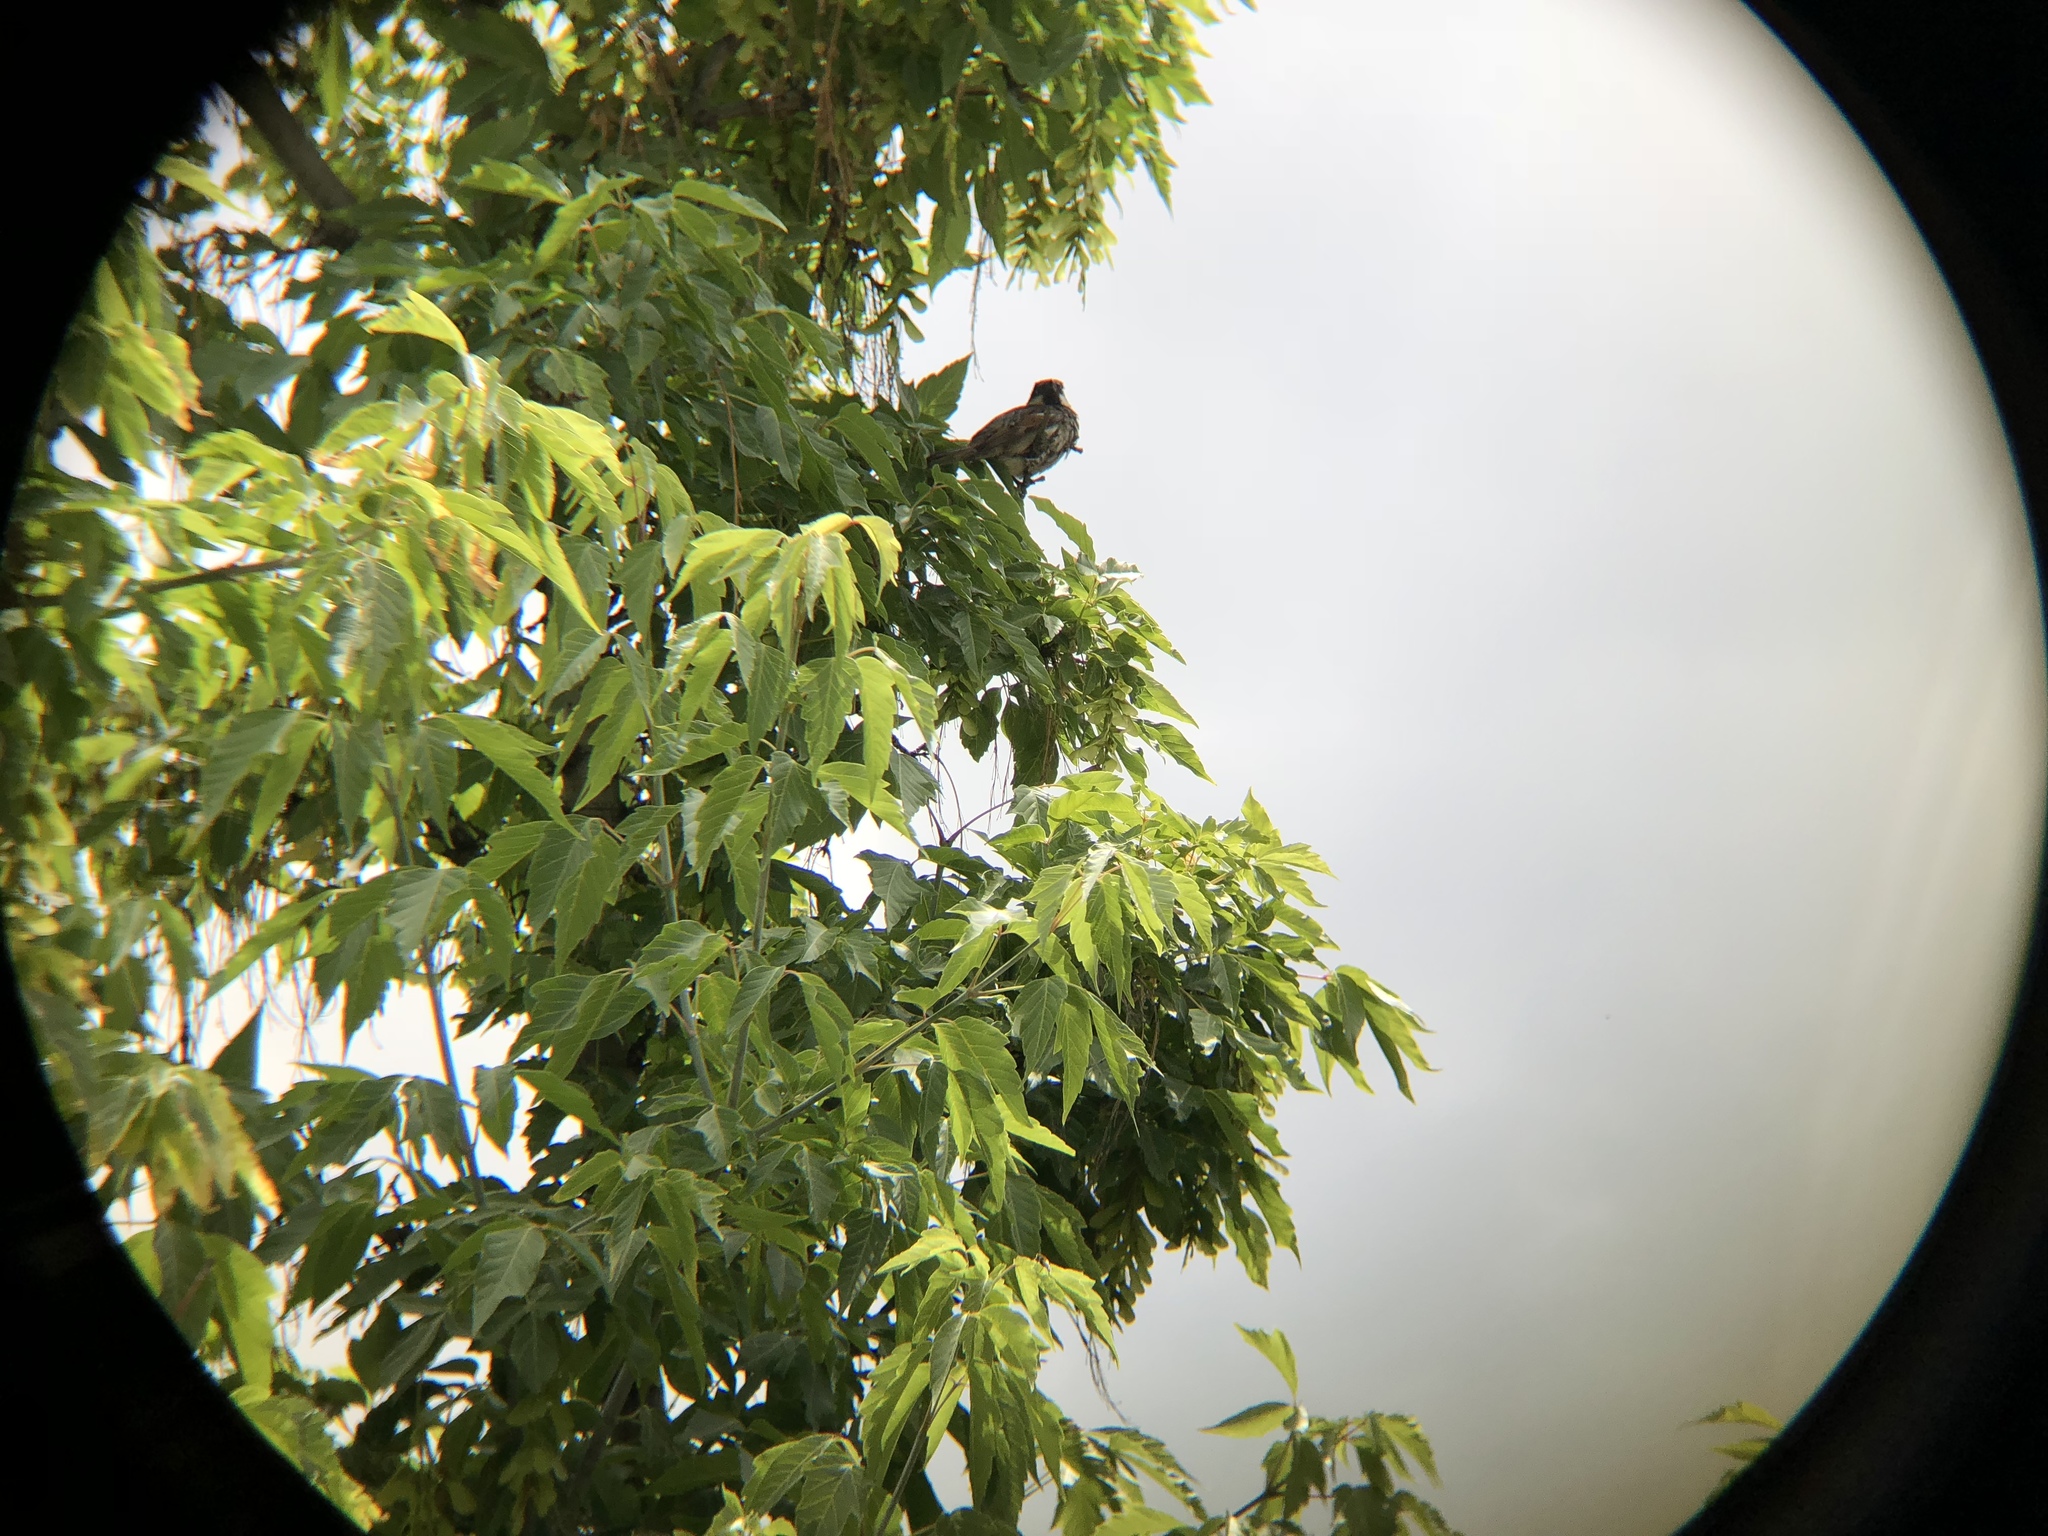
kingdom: Animalia
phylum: Chordata
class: Aves
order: Passeriformes
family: Passeridae
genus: Passer
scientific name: Passer domesticus
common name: House sparrow
